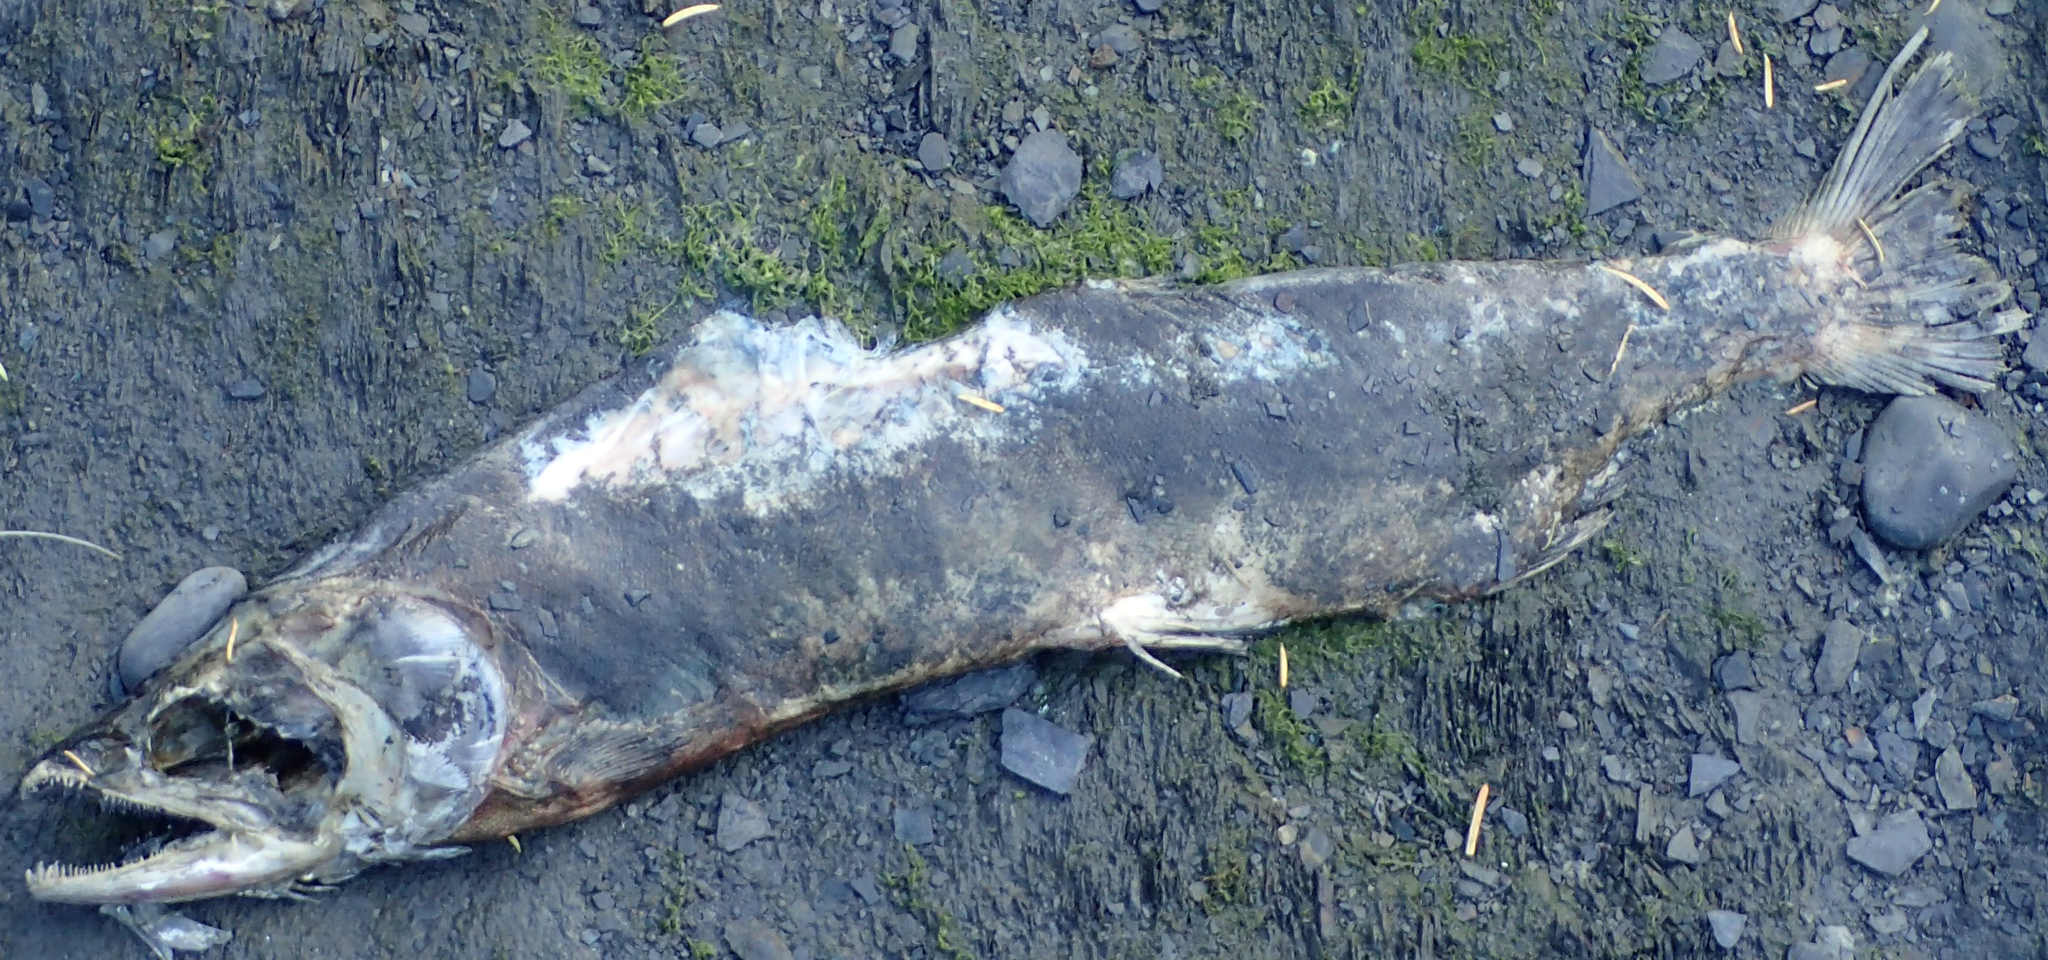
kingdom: Animalia
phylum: Chordata
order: Salmoniformes
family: Salmonidae
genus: Oncorhynchus
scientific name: Oncorhynchus gorbuscha
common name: Humpback salmon
